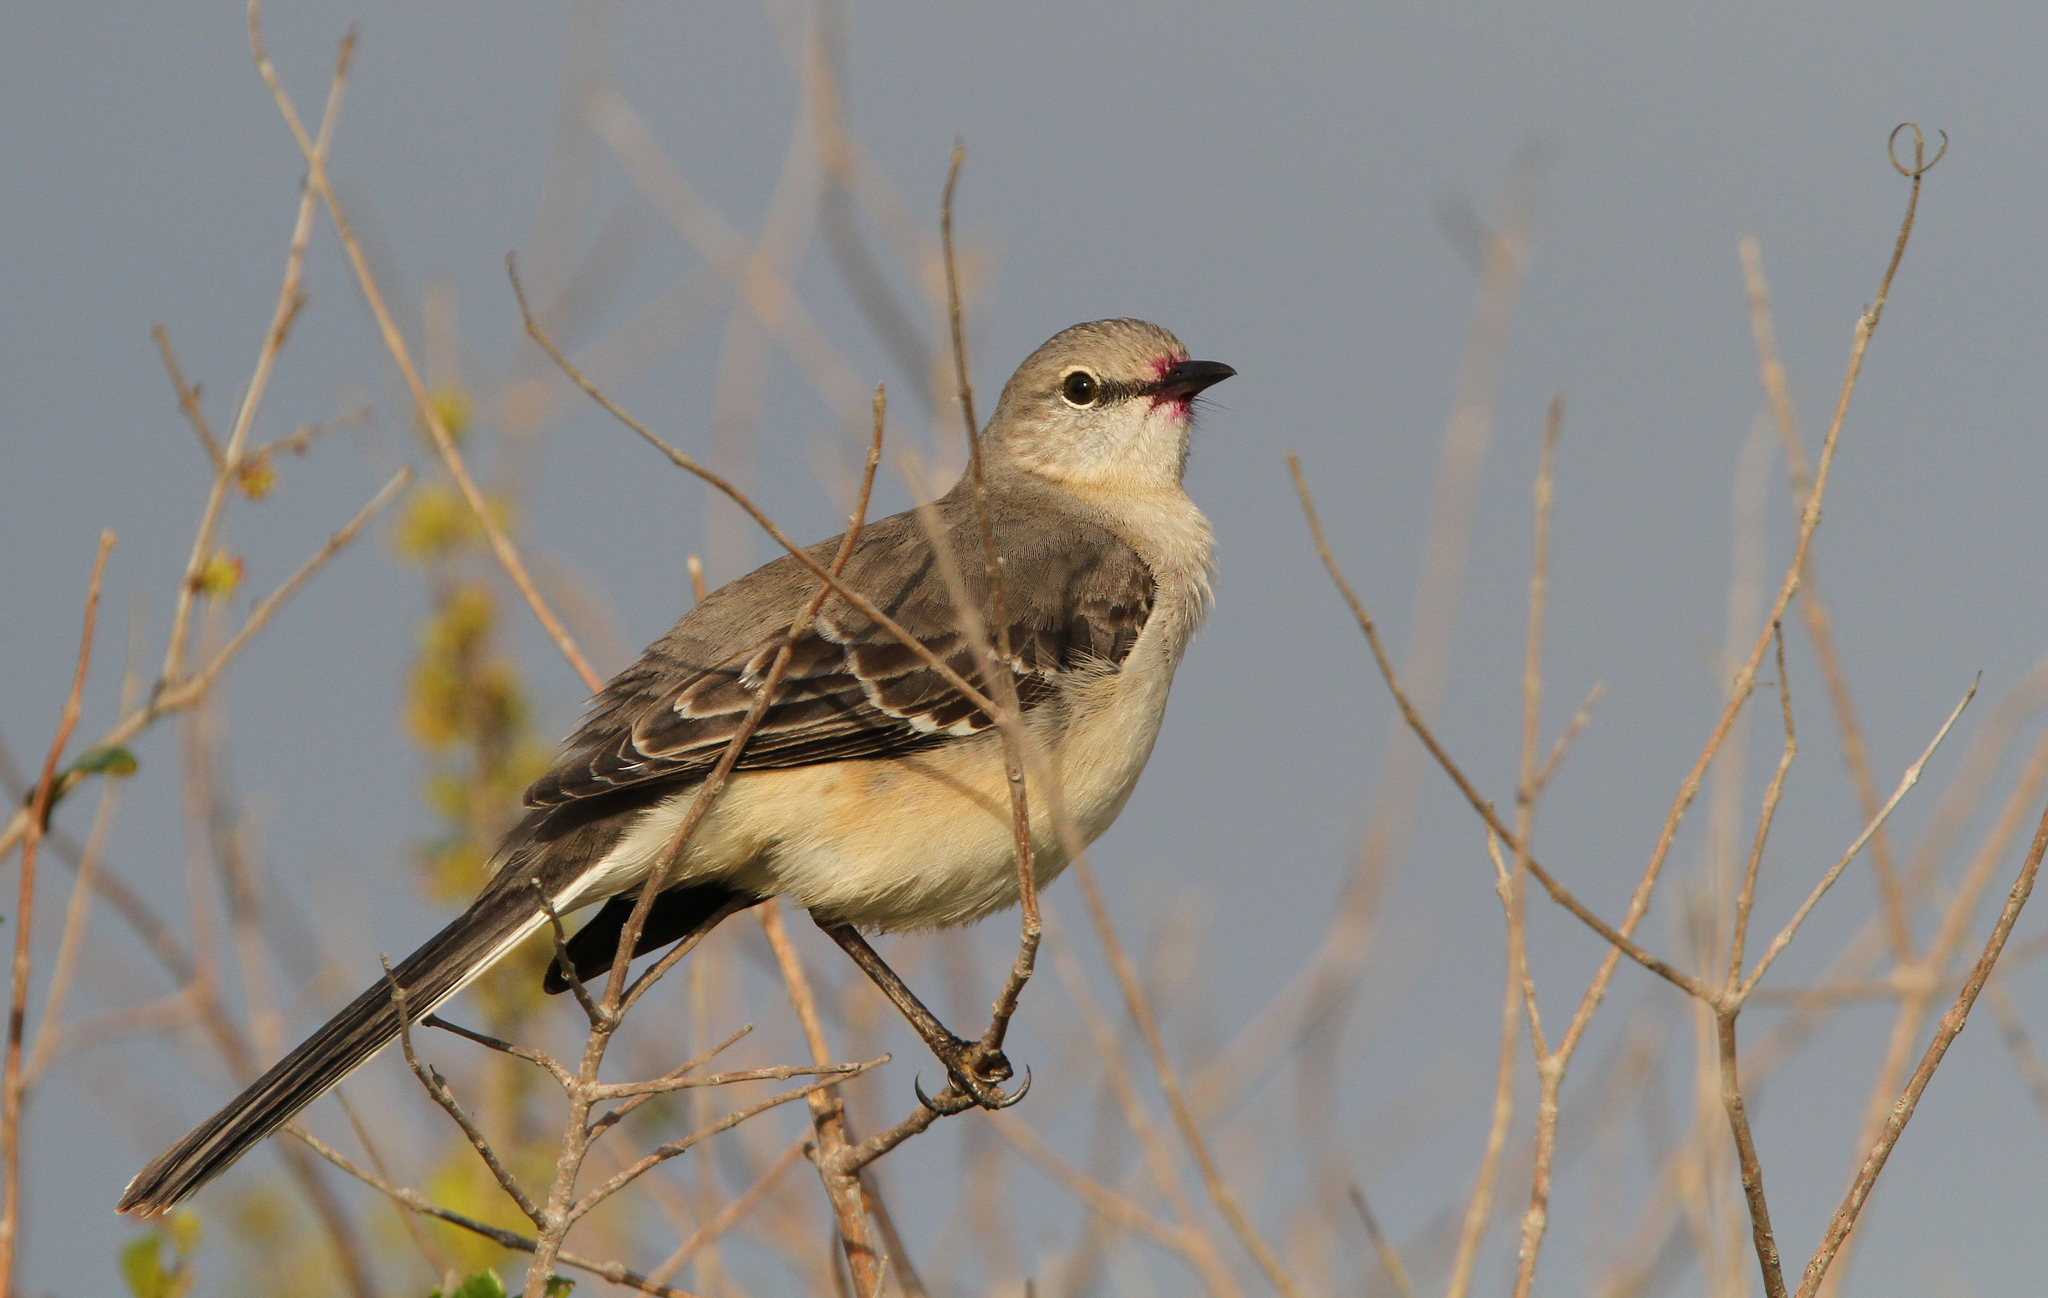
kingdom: Animalia
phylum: Chordata
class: Aves
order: Passeriformes
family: Mimidae
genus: Mimus
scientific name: Mimus polyglottos
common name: Northern mockingbird
